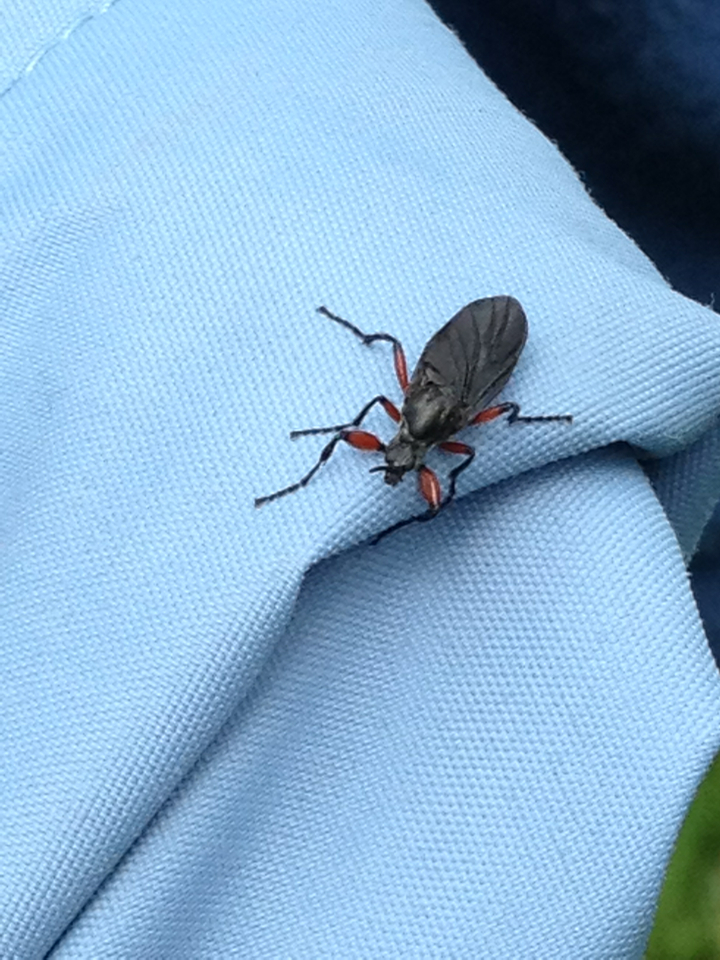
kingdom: Animalia
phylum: Arthropoda
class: Insecta
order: Diptera
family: Bibionidae
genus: Bibio
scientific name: Bibio femoratus
